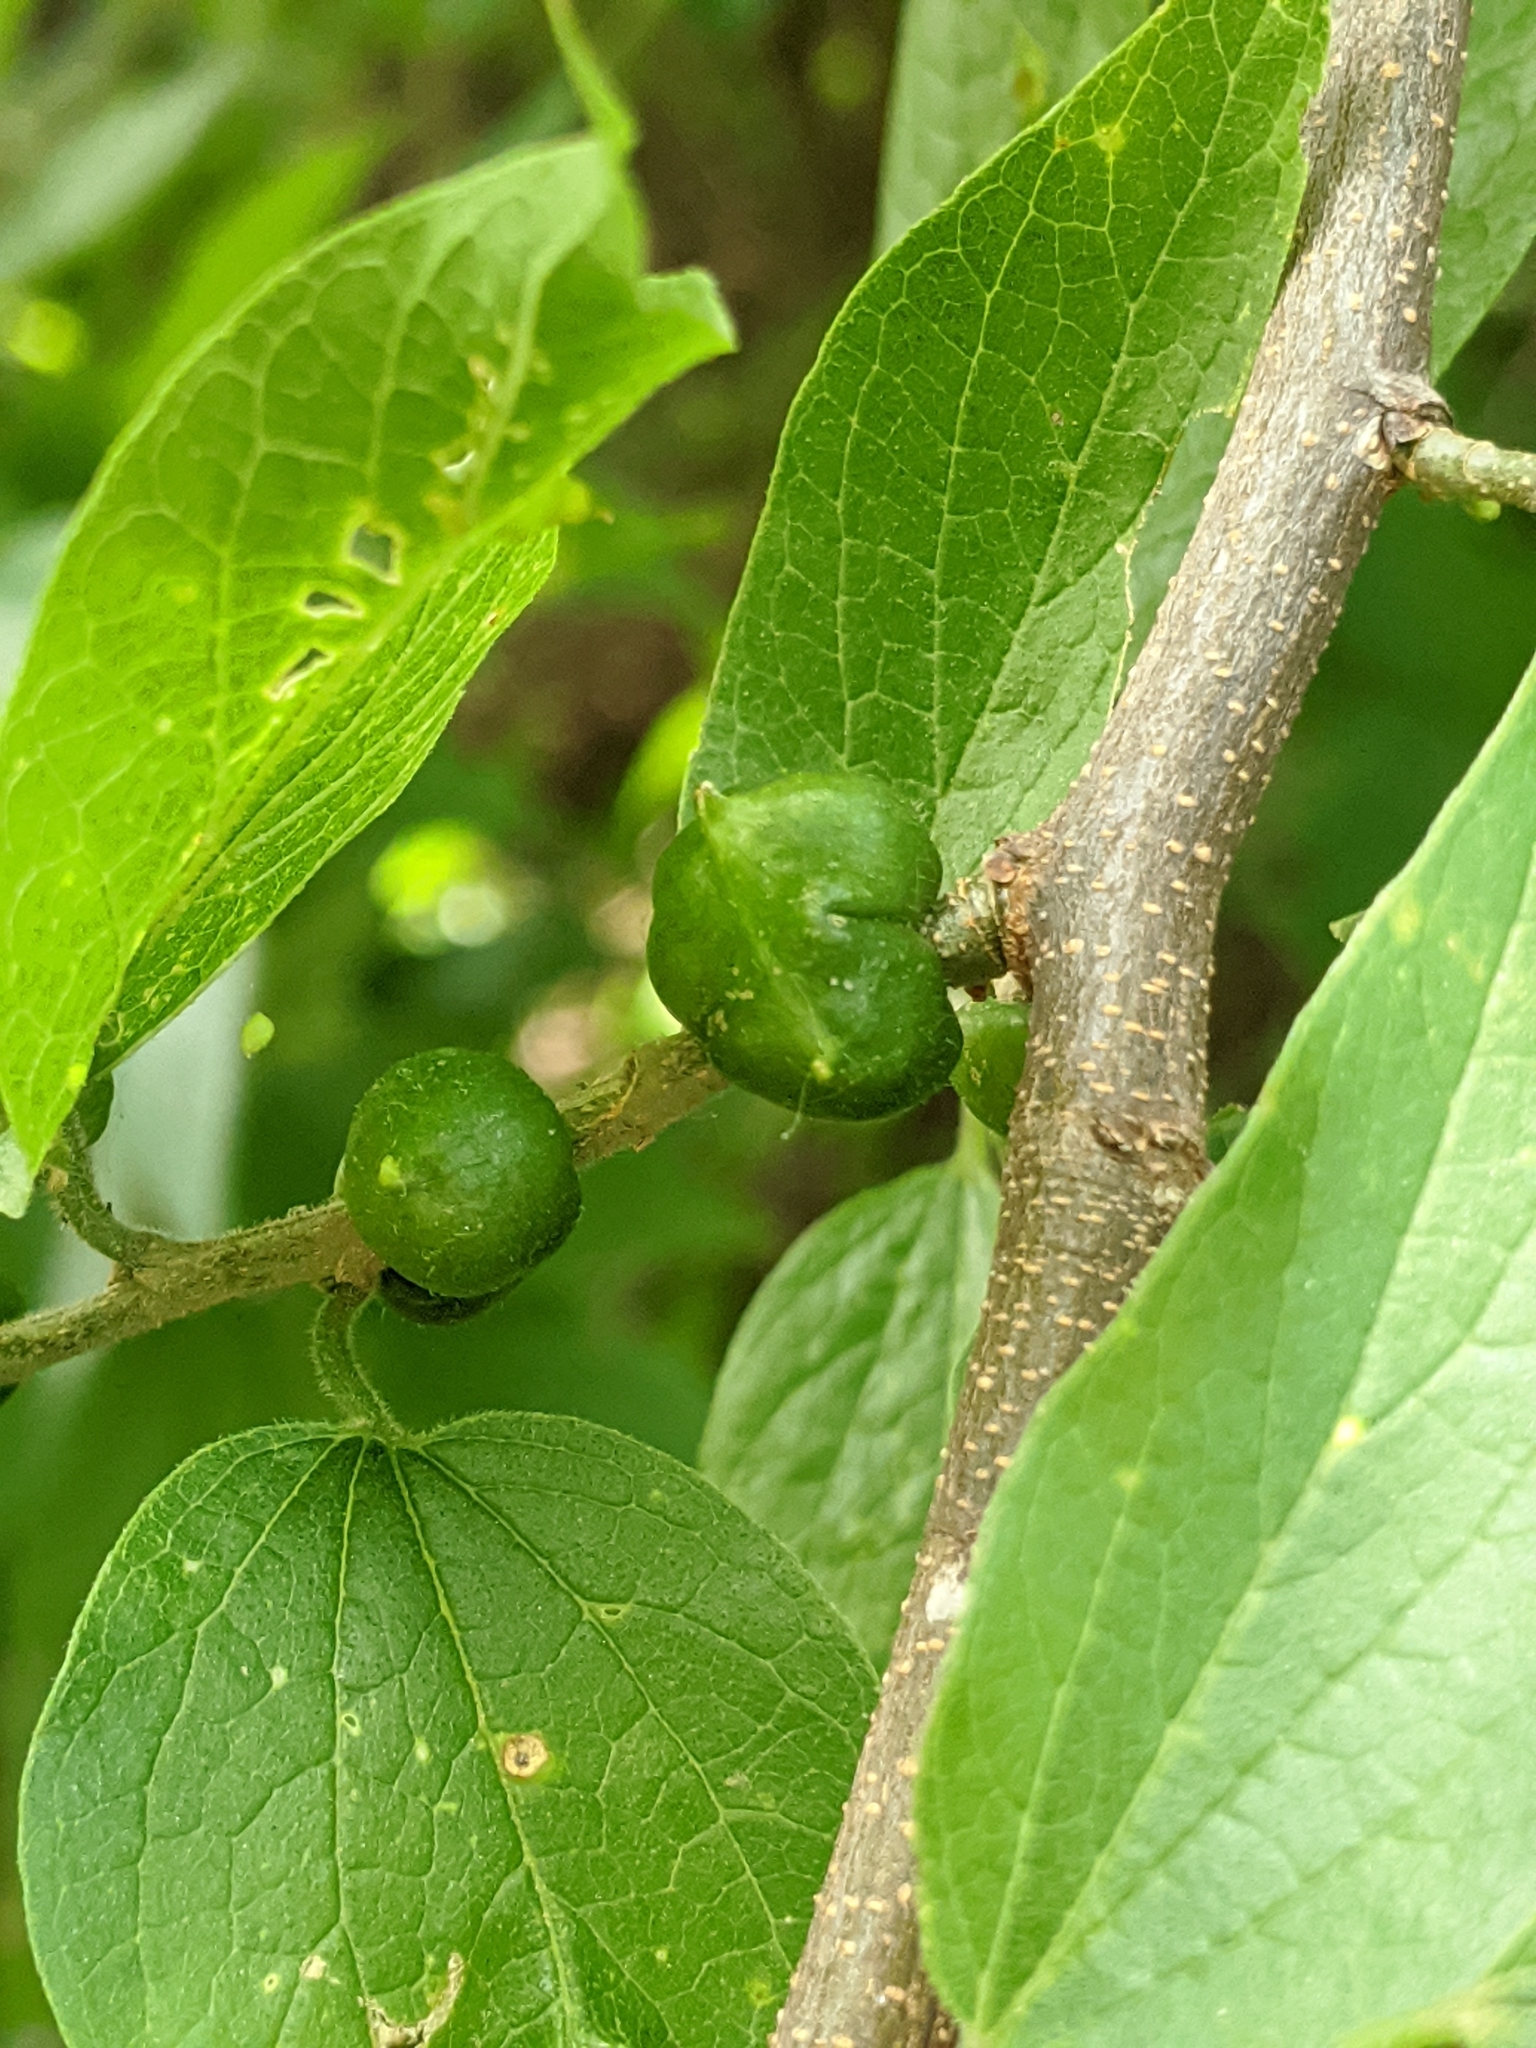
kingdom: Animalia
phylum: Arthropoda
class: Insecta
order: Diptera
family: Cecidomyiidae
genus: Celticecis
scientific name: Celticecis connata
